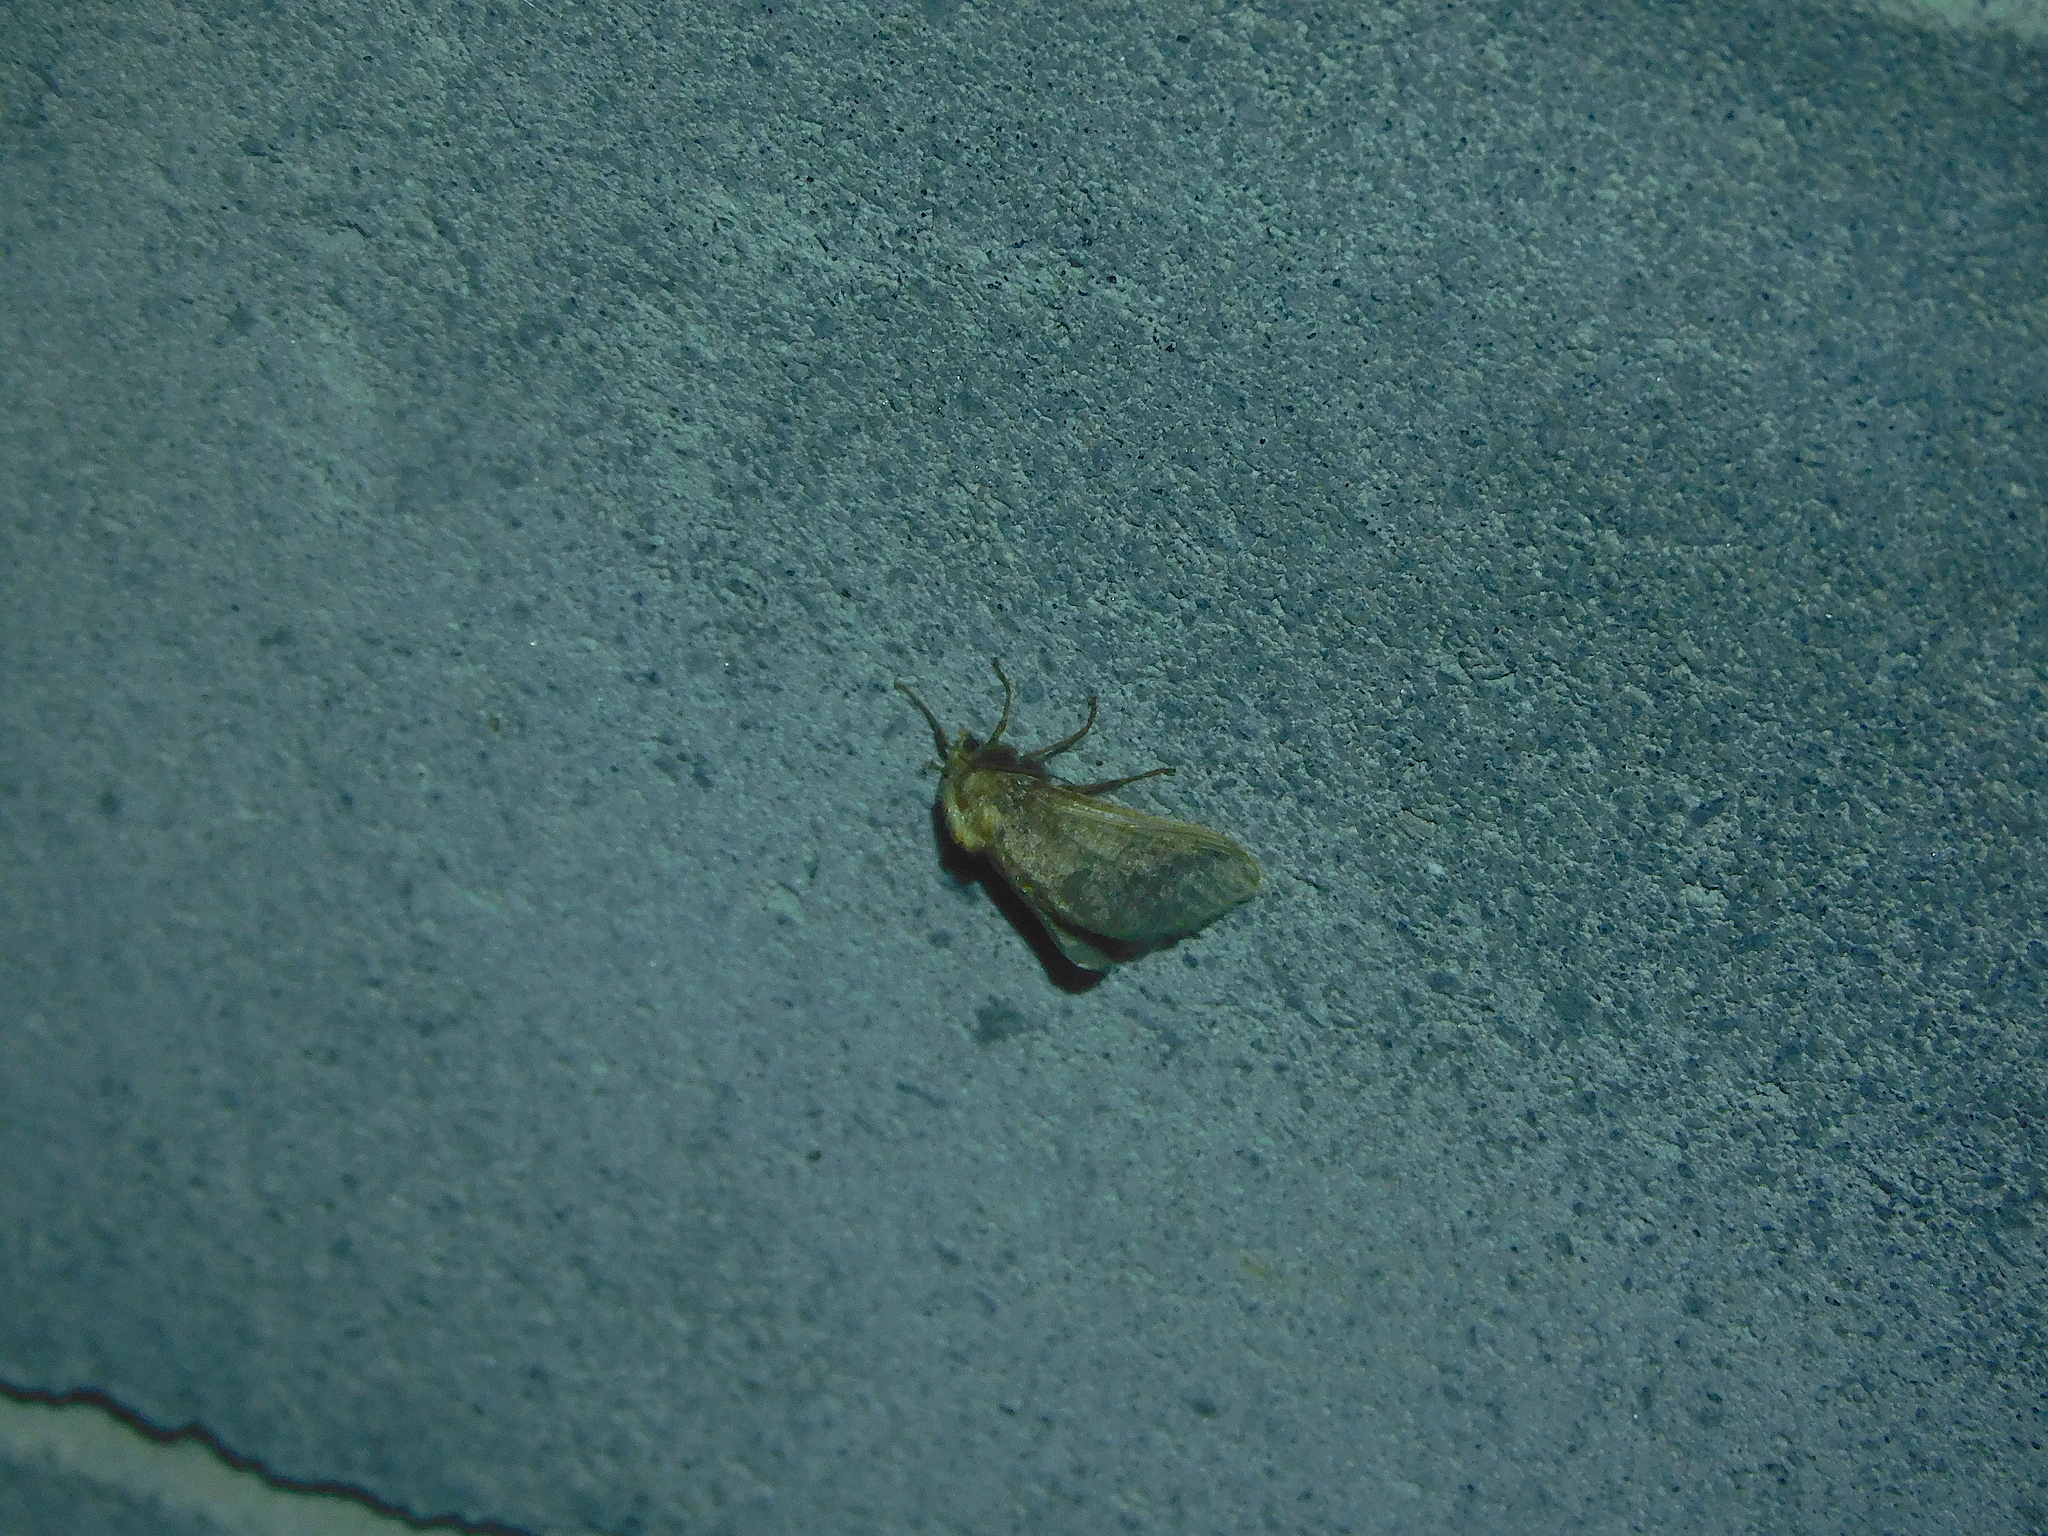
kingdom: Animalia
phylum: Arthropoda
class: Insecta
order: Lepidoptera
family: Limacodidae
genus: Doratifera
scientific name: Doratifera oxleyi
